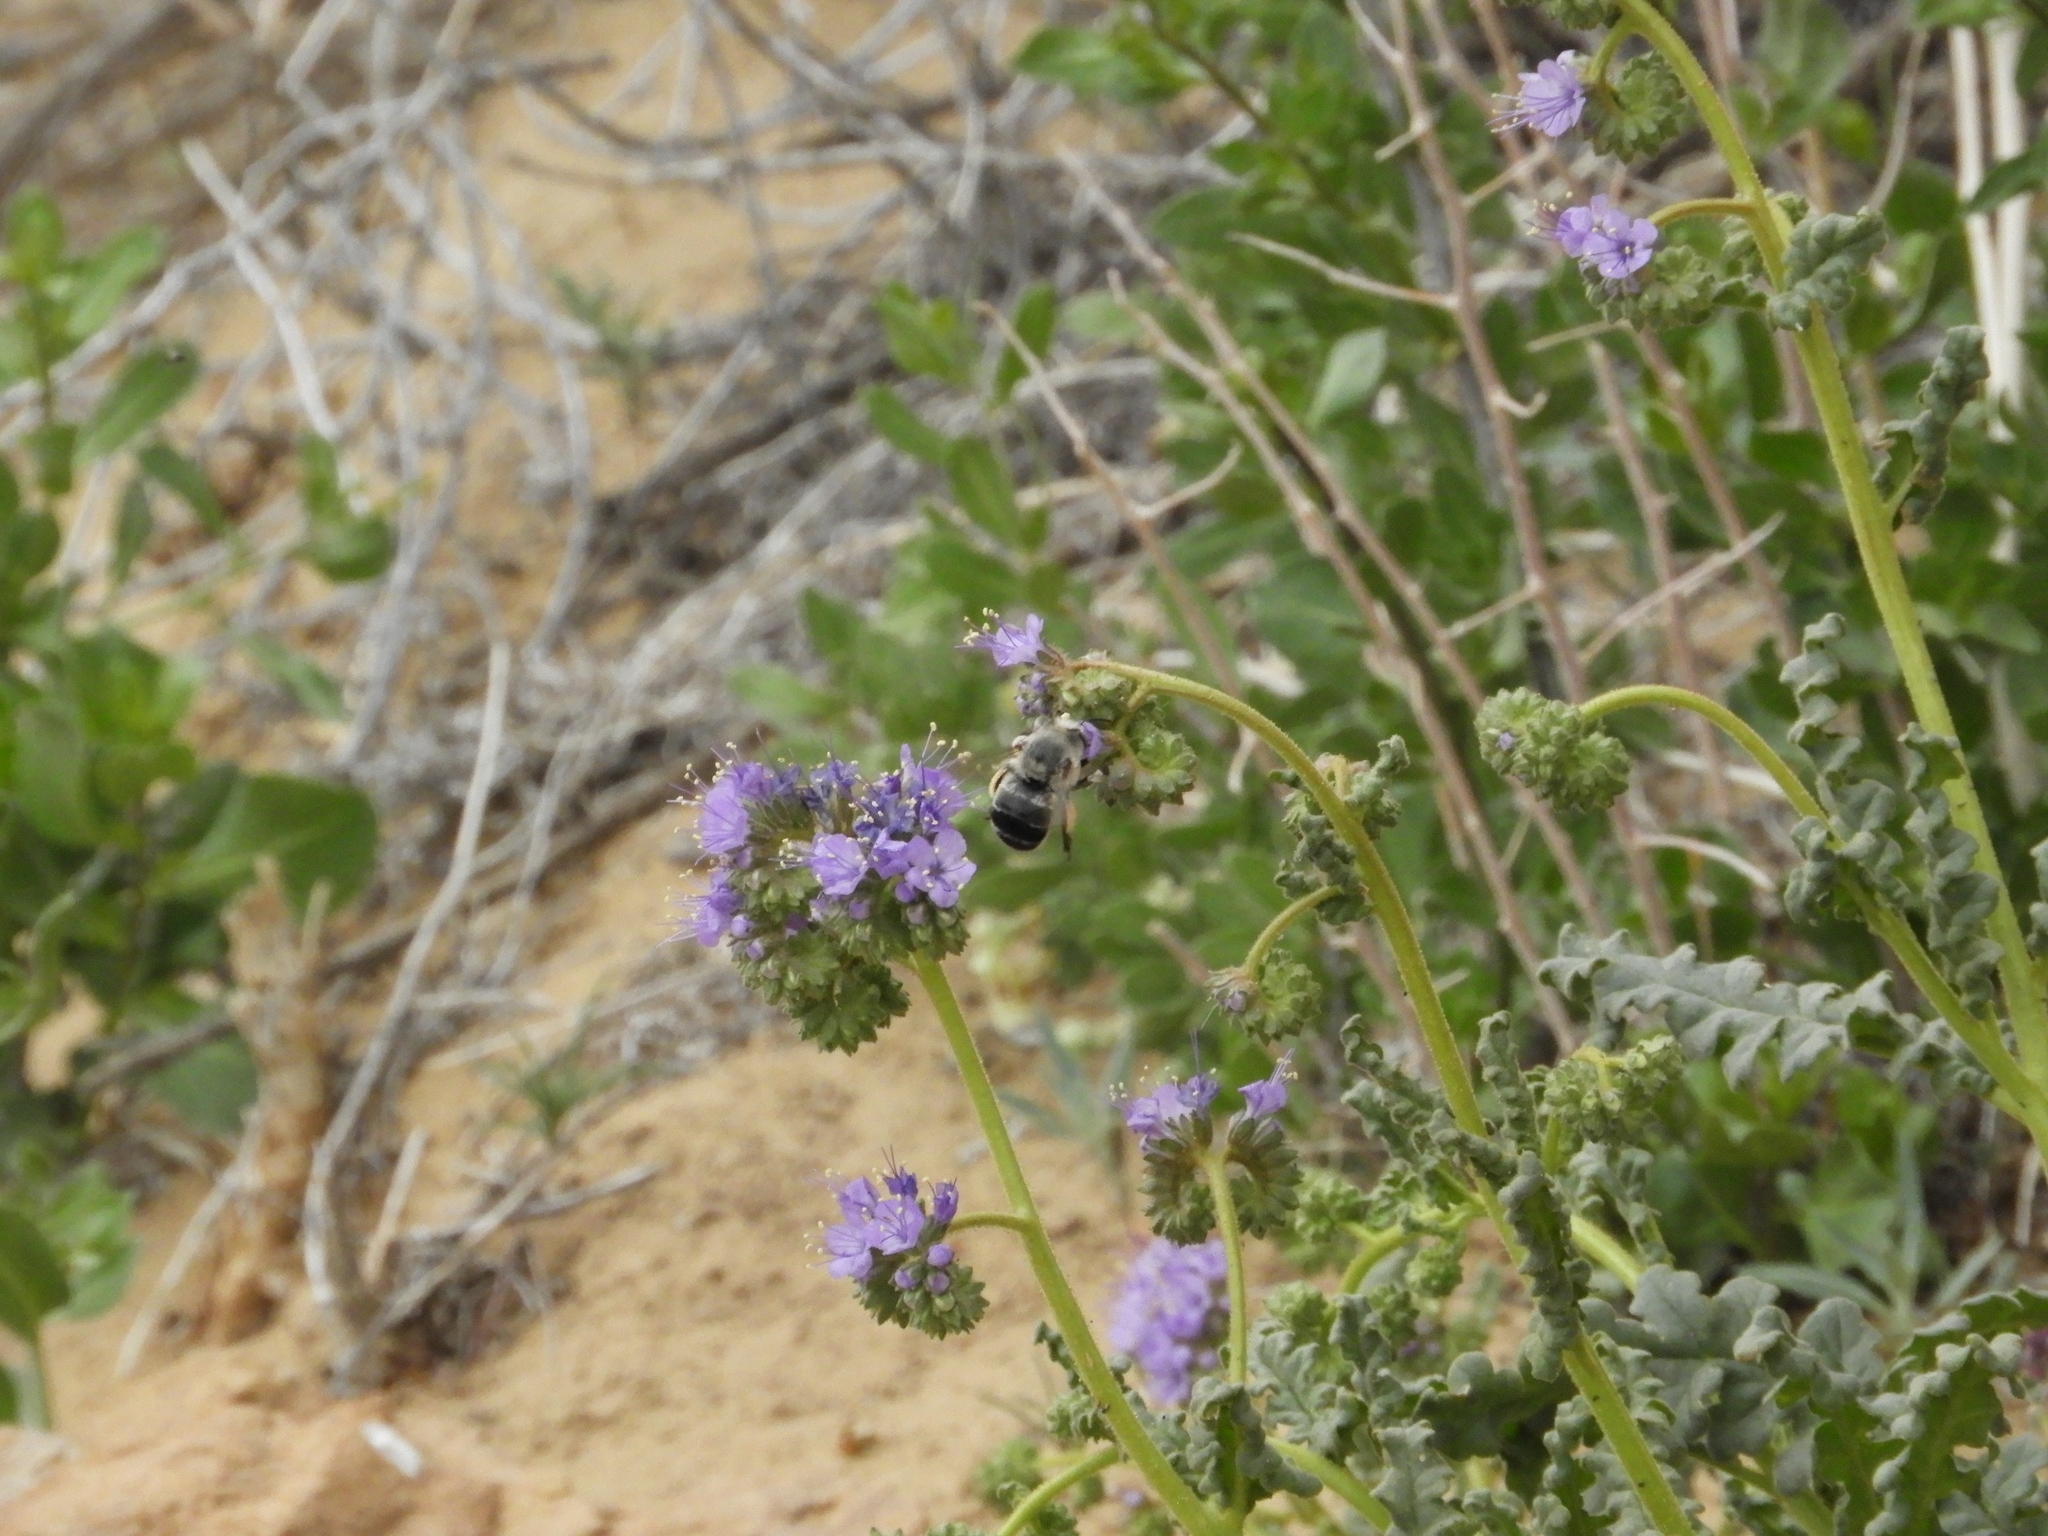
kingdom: Animalia
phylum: Arthropoda
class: Insecta
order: Hymenoptera
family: Apidae
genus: Anthophora
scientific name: Anthophora
